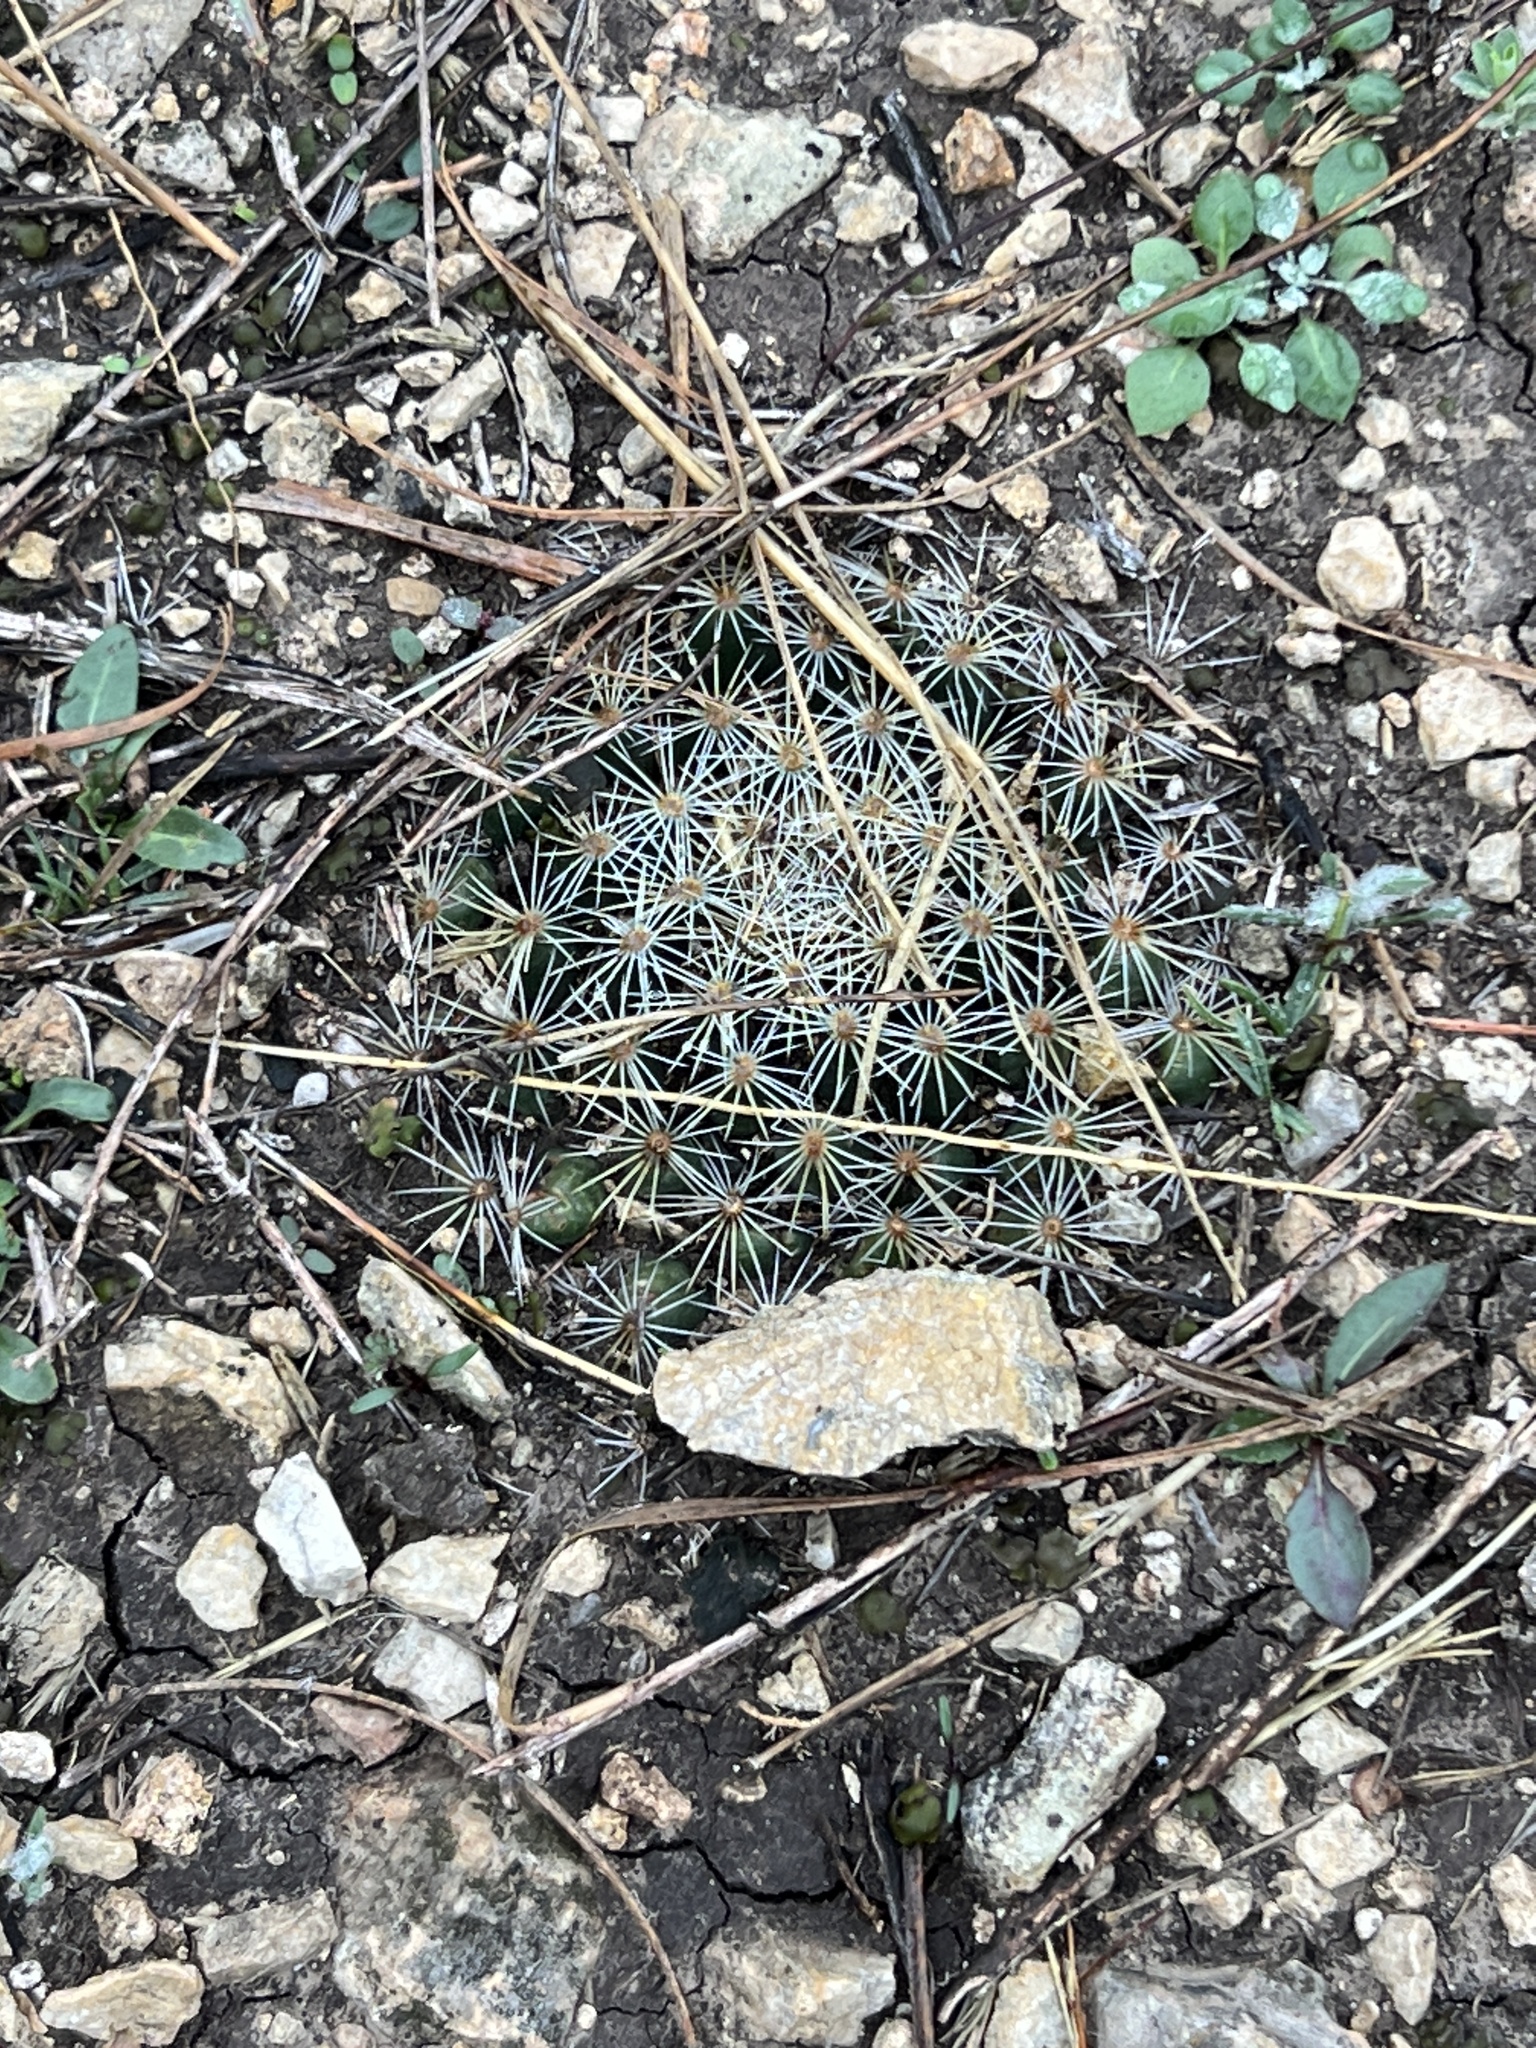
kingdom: Plantae
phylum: Tracheophyta
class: Magnoliopsida
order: Caryophyllales
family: Cactaceae
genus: Mammillaria
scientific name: Mammillaria heyderi
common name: Little nipple cactus
